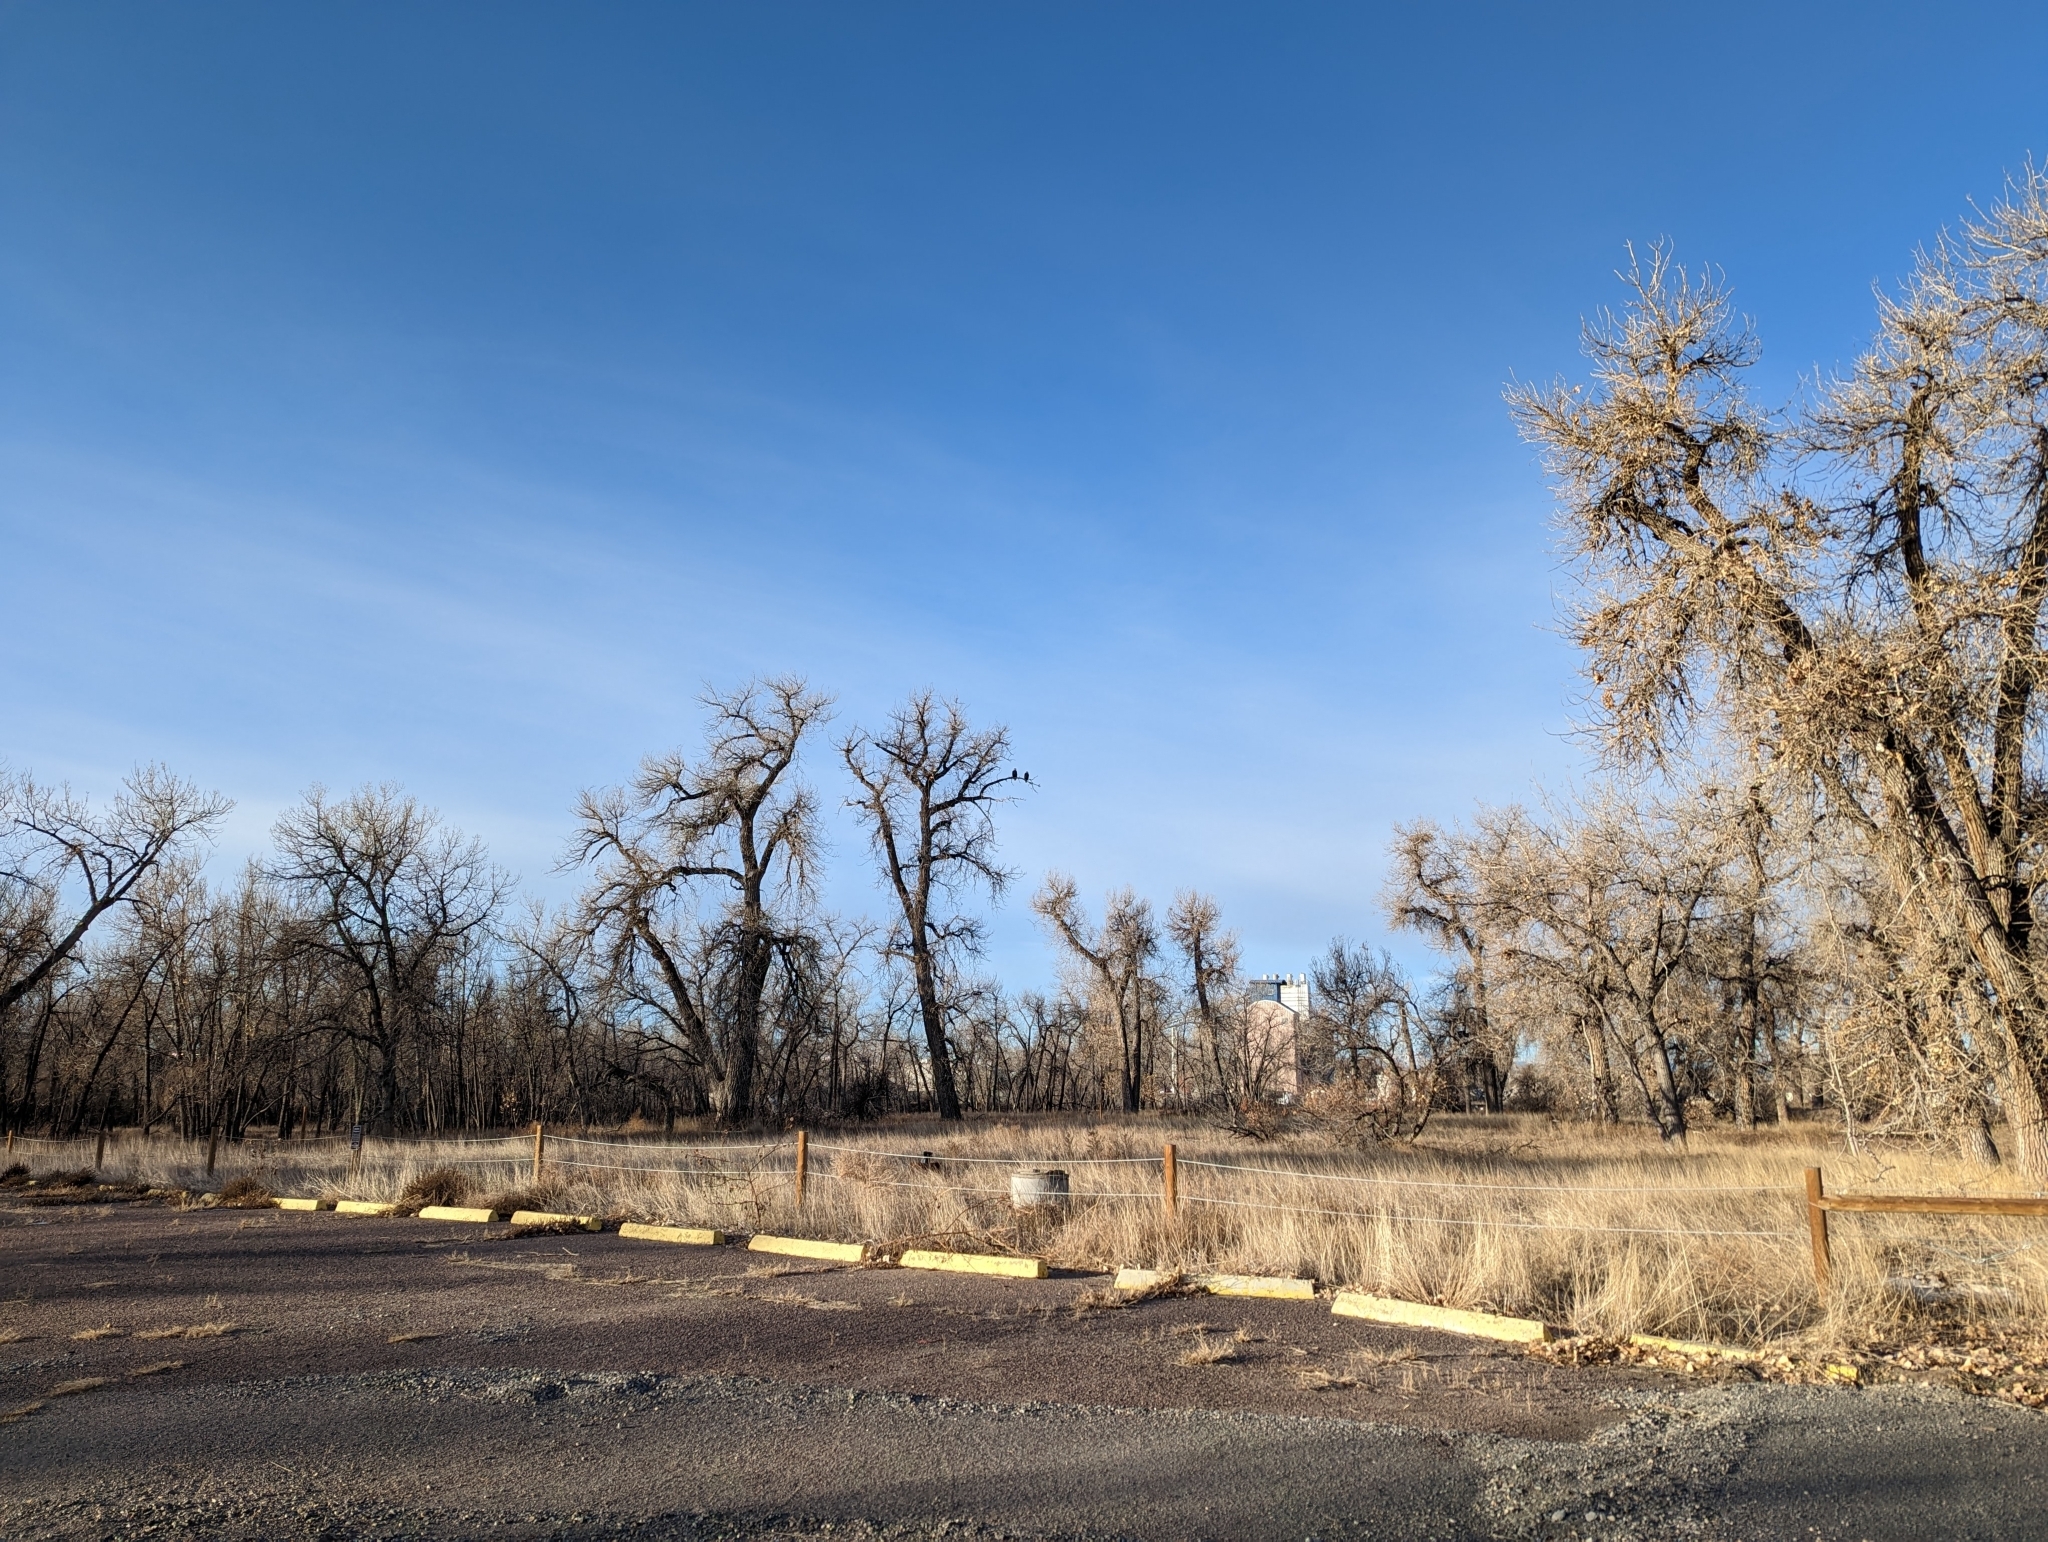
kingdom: Animalia
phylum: Chordata
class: Aves
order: Accipitriformes
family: Accipitridae
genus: Haliaeetus
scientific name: Haliaeetus leucocephalus
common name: Bald eagle
